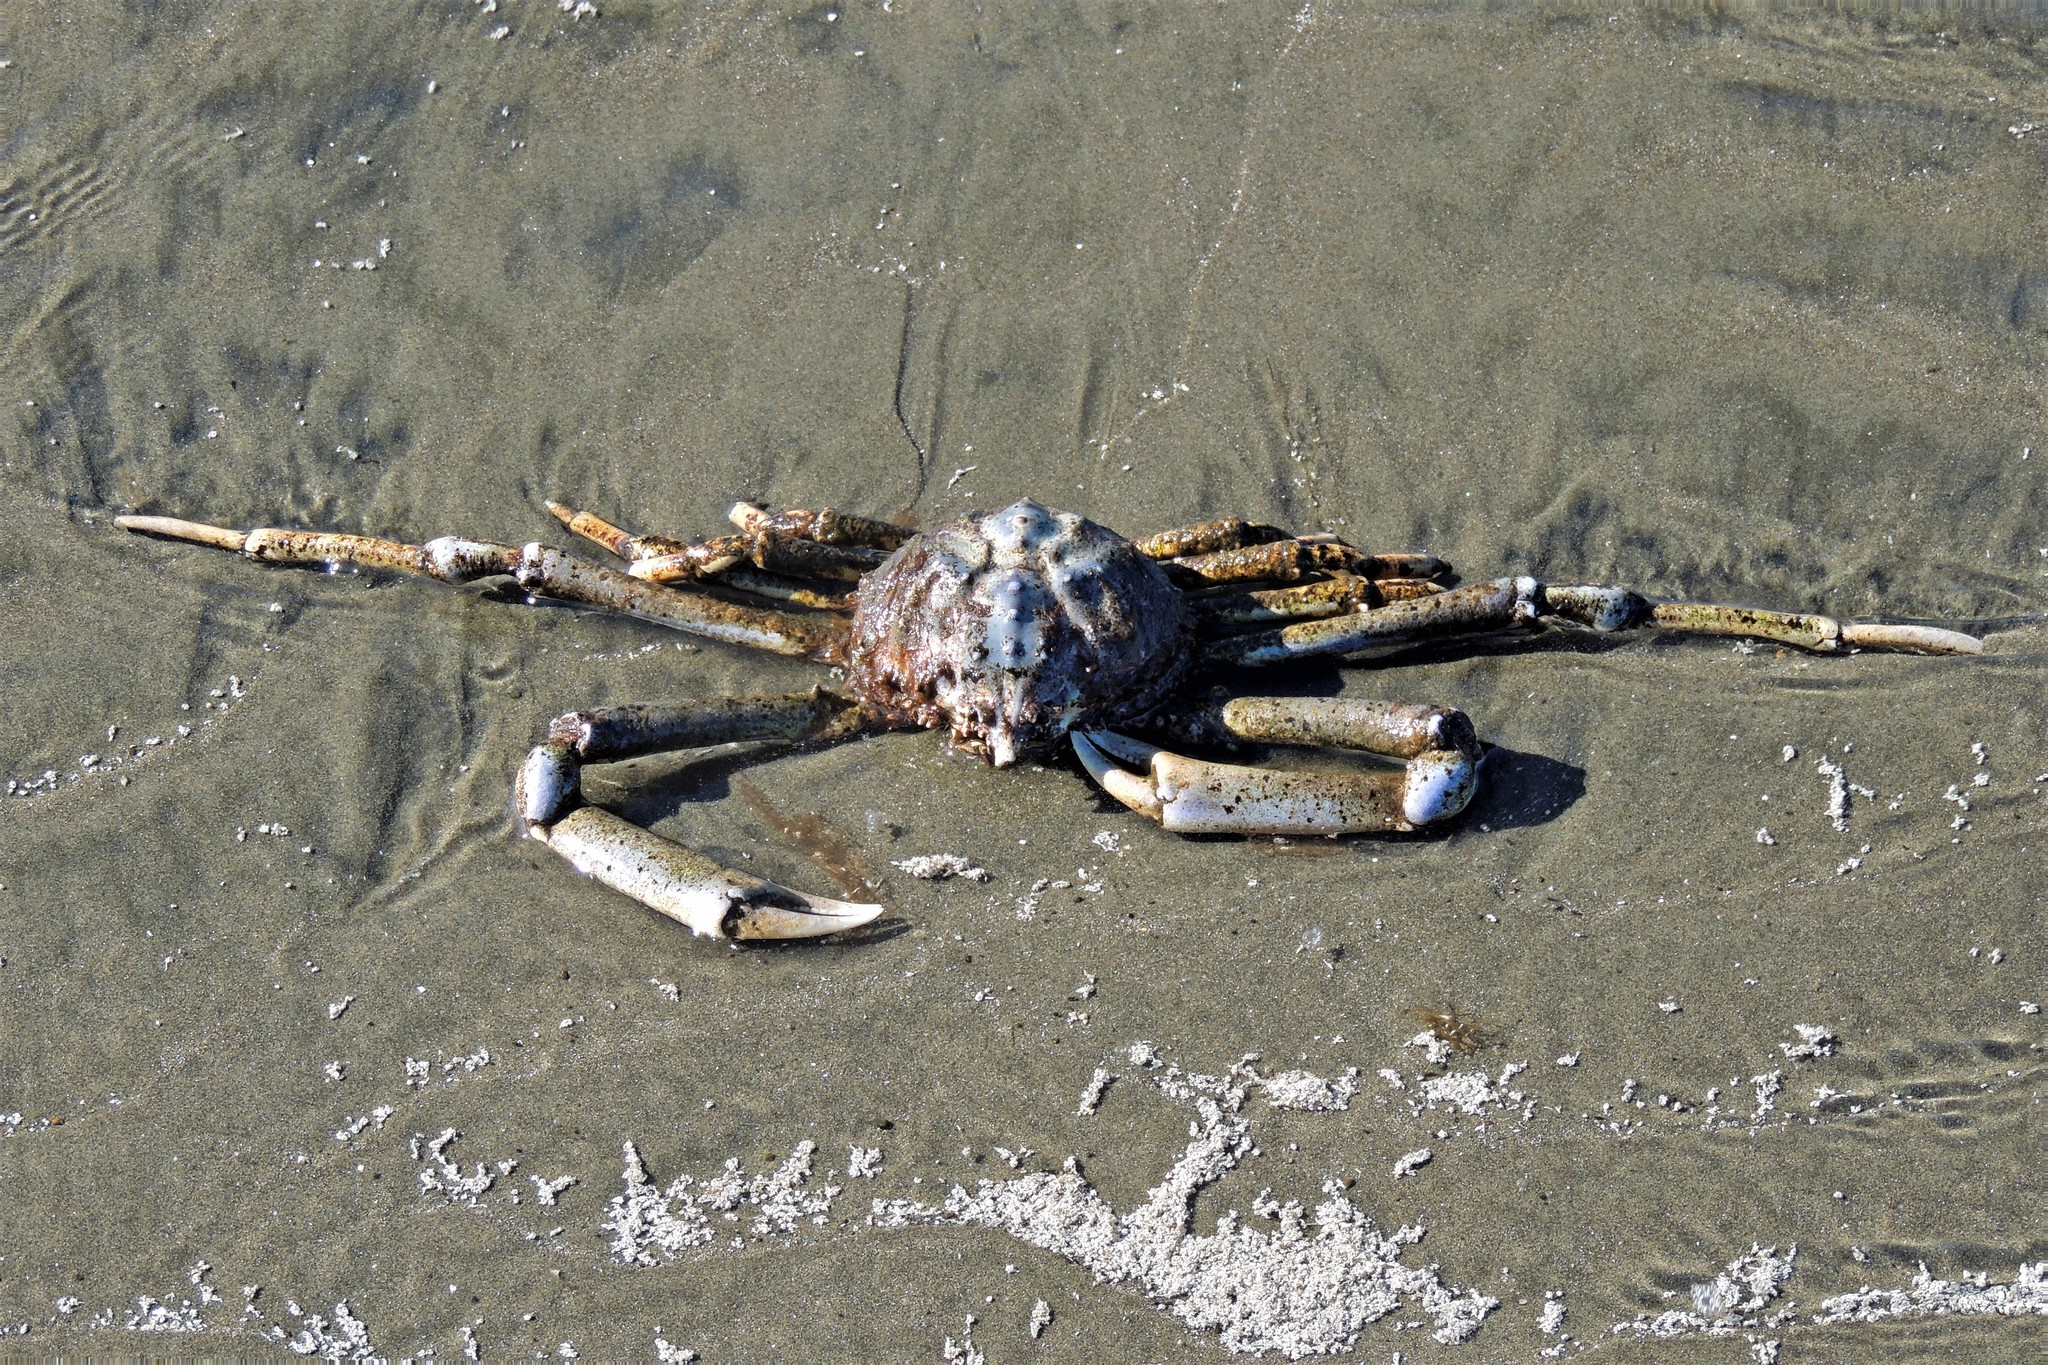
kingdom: Animalia
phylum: Arthropoda
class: Malacostraca
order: Decapoda
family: Epialtidae
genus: Libinia
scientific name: Libinia spinosa
